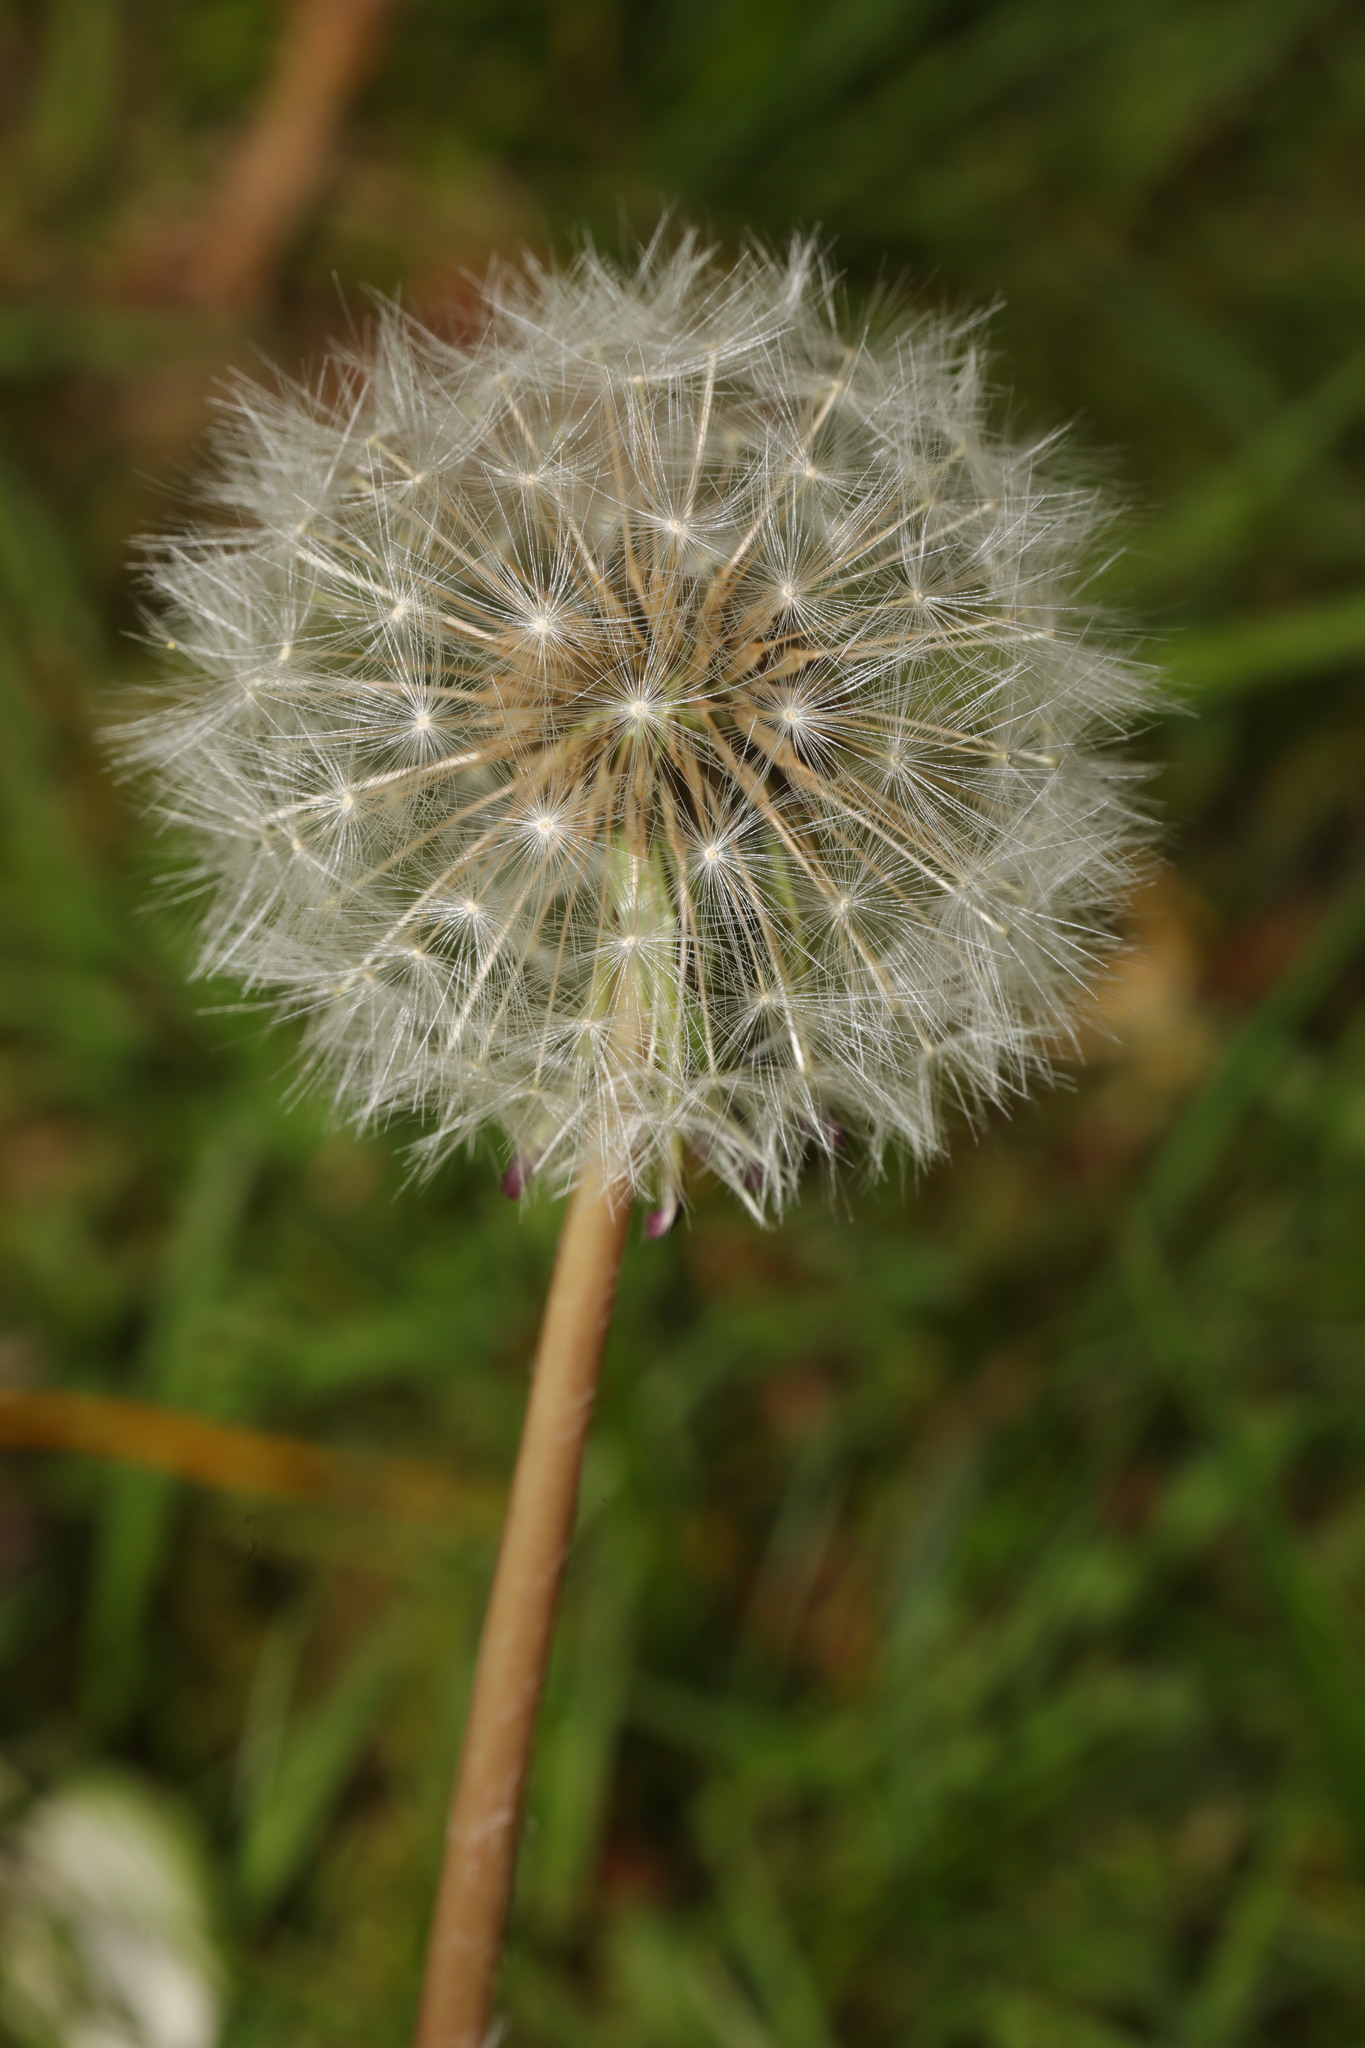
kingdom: Plantae
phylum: Tracheophyta
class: Magnoliopsida
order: Asterales
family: Asteraceae
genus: Taraxacum
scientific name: Taraxacum officinale
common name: Common dandelion
